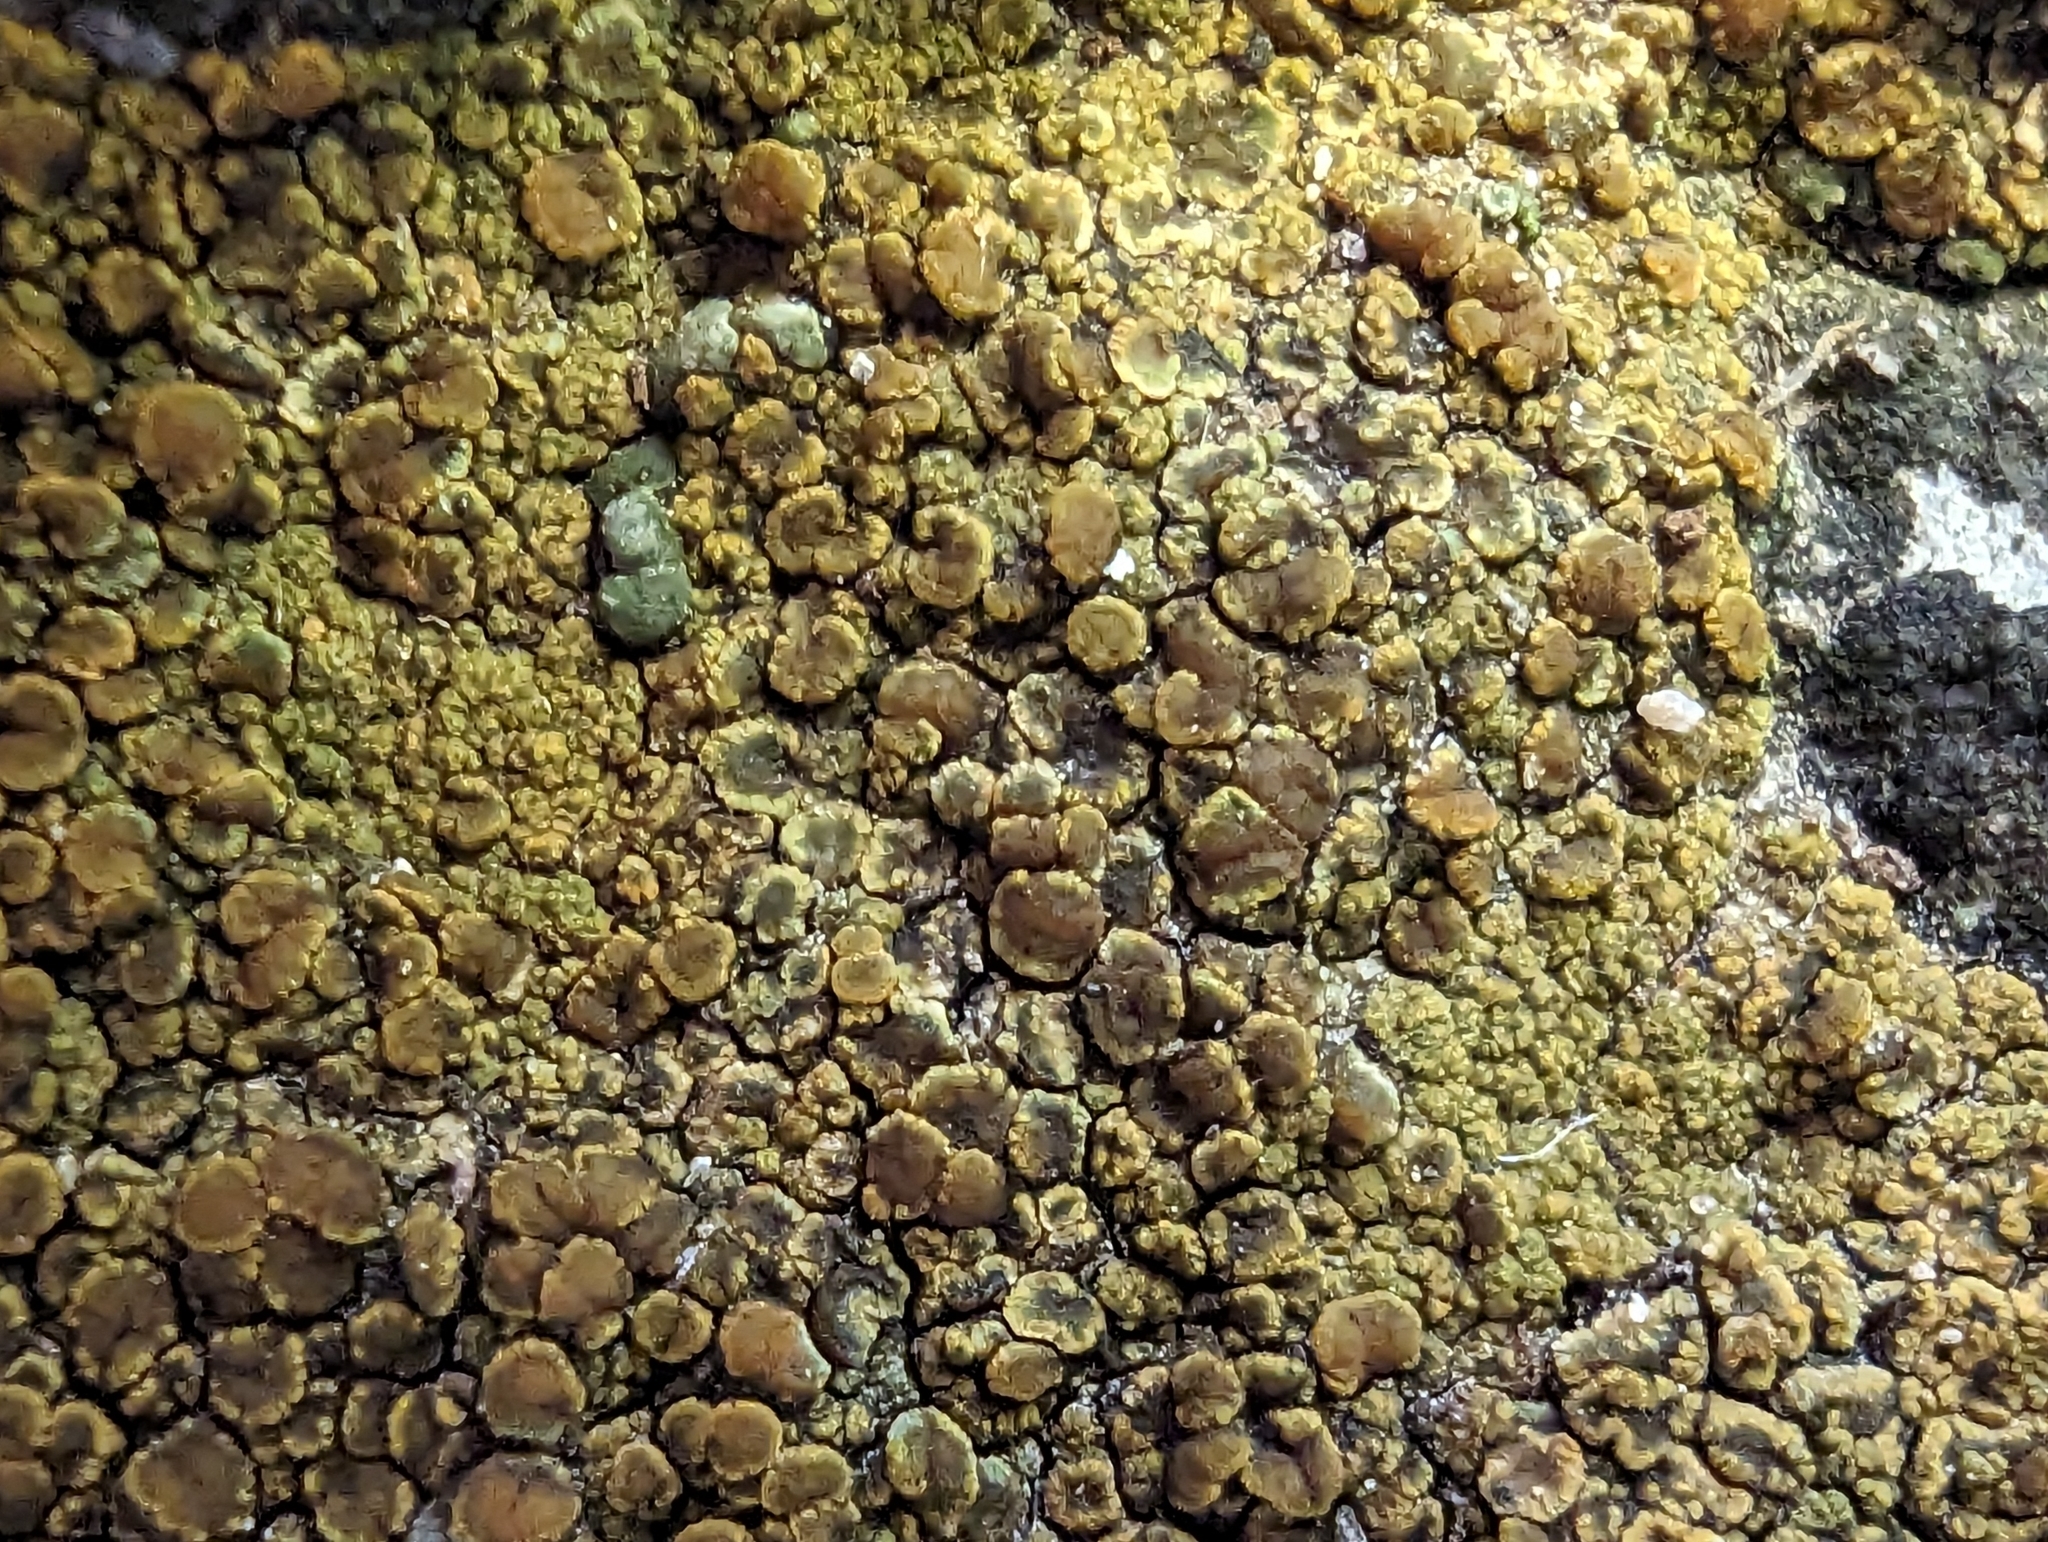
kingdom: Fungi
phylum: Ascomycota
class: Candelariomycetes
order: Candelariales
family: Candelariaceae
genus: Candelariella
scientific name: Candelariella vitellina
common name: Common goldspeck
